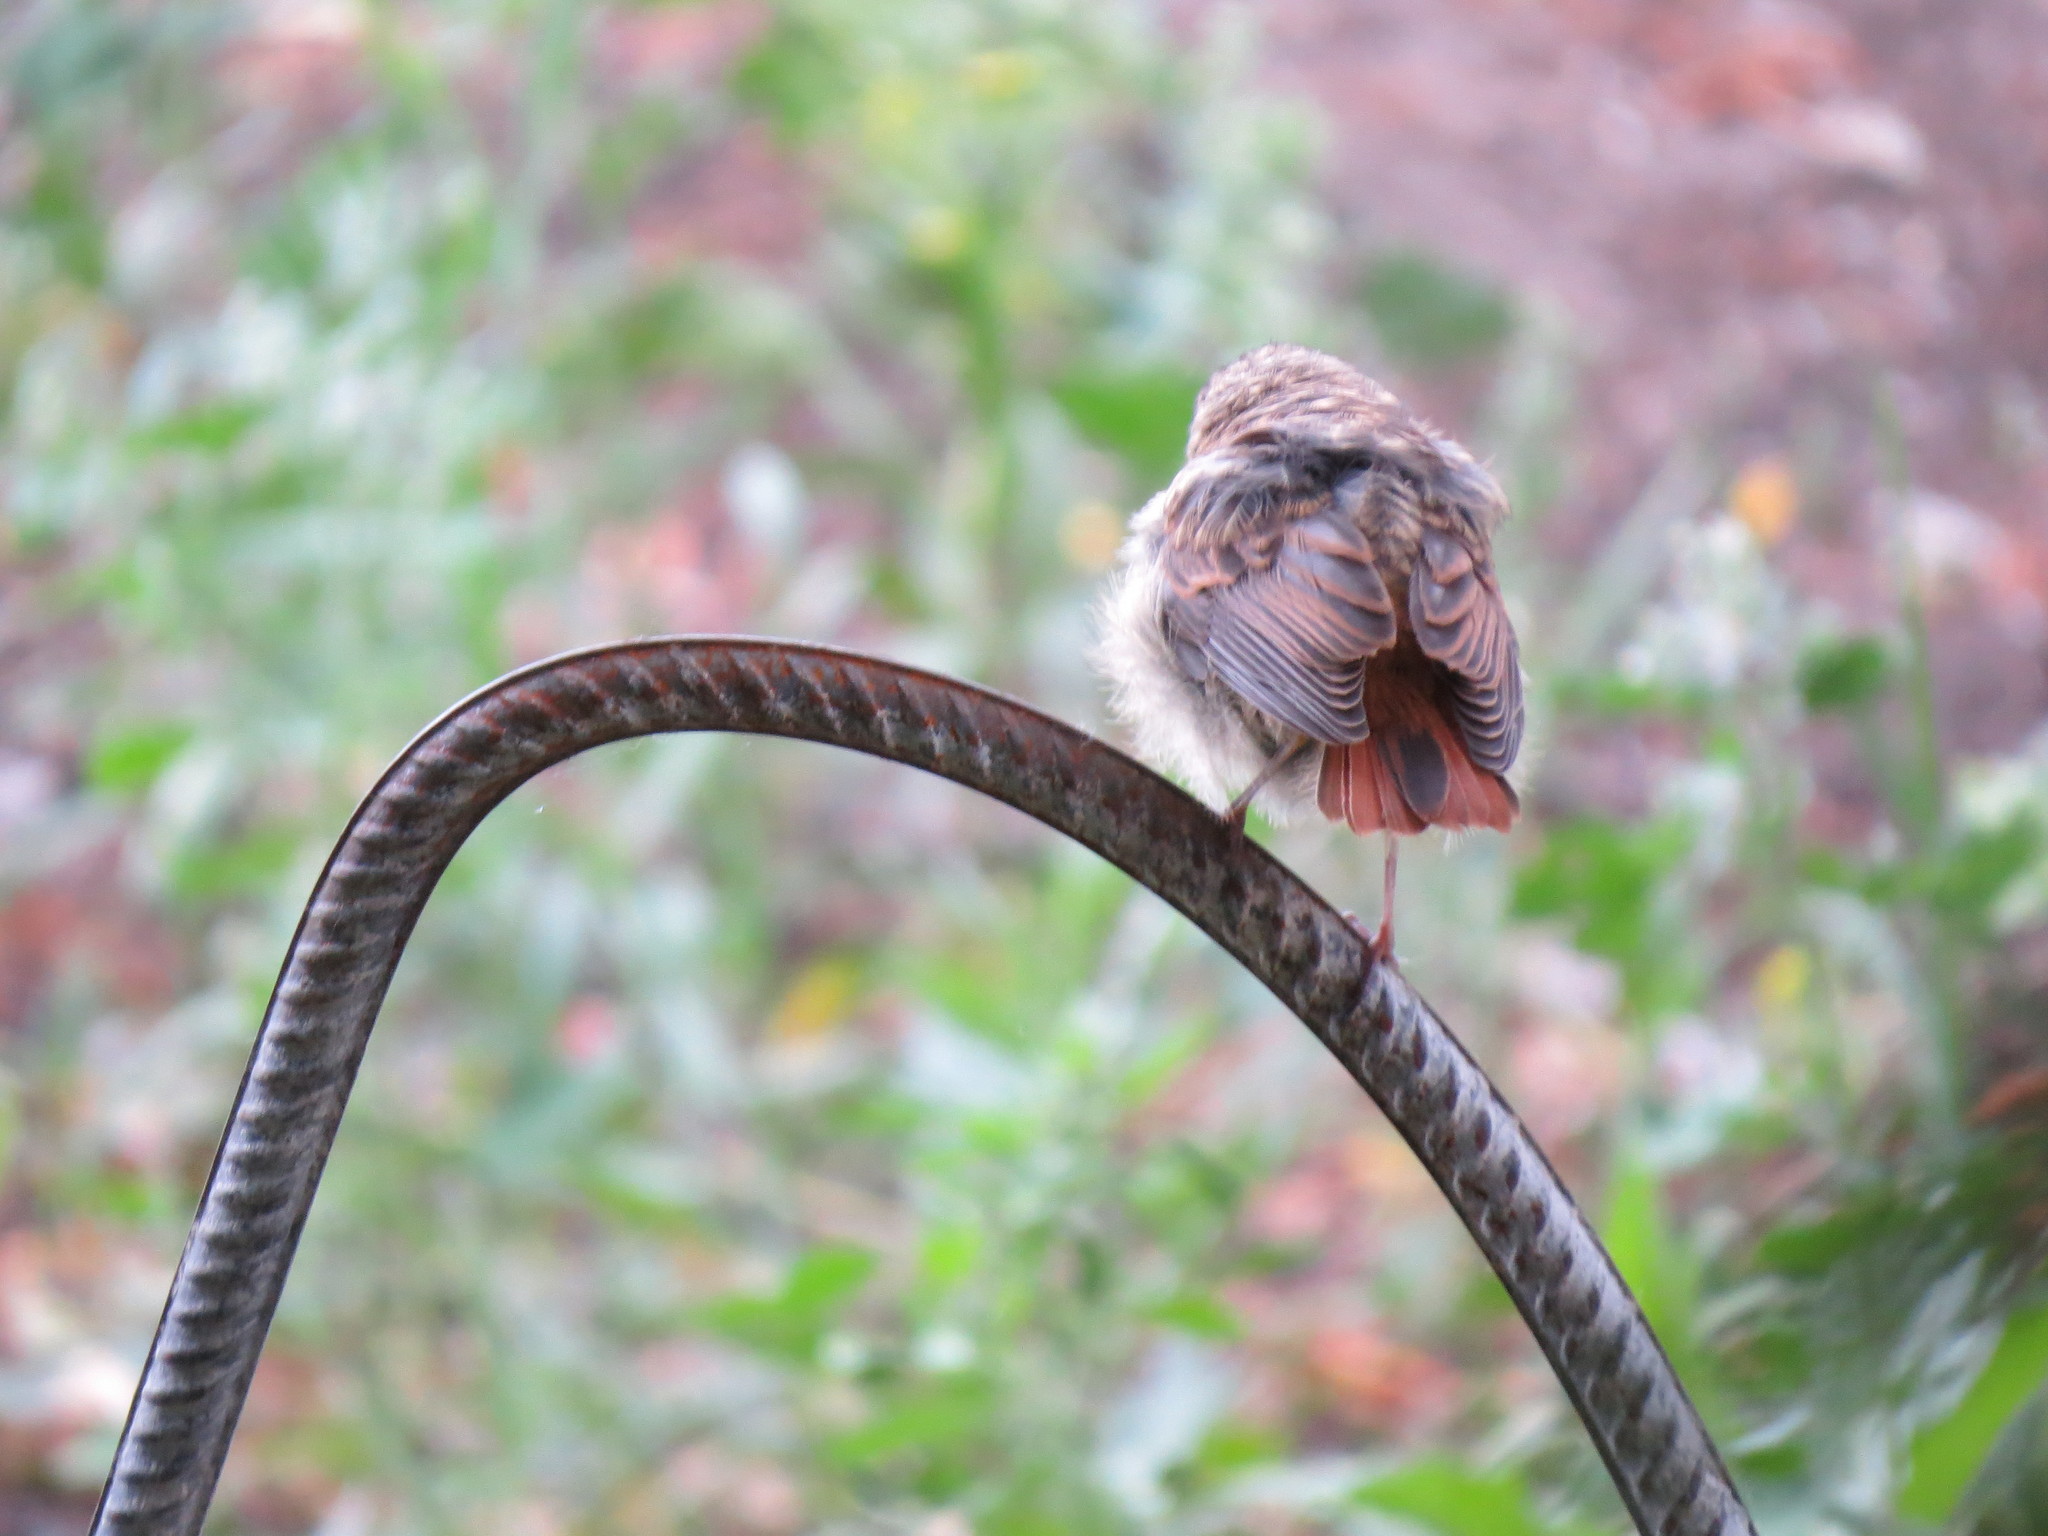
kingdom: Animalia
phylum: Chordata
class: Aves
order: Passeriformes
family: Muscicapidae
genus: Phoenicurus
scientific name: Phoenicurus phoenicurus
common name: Common redstart
